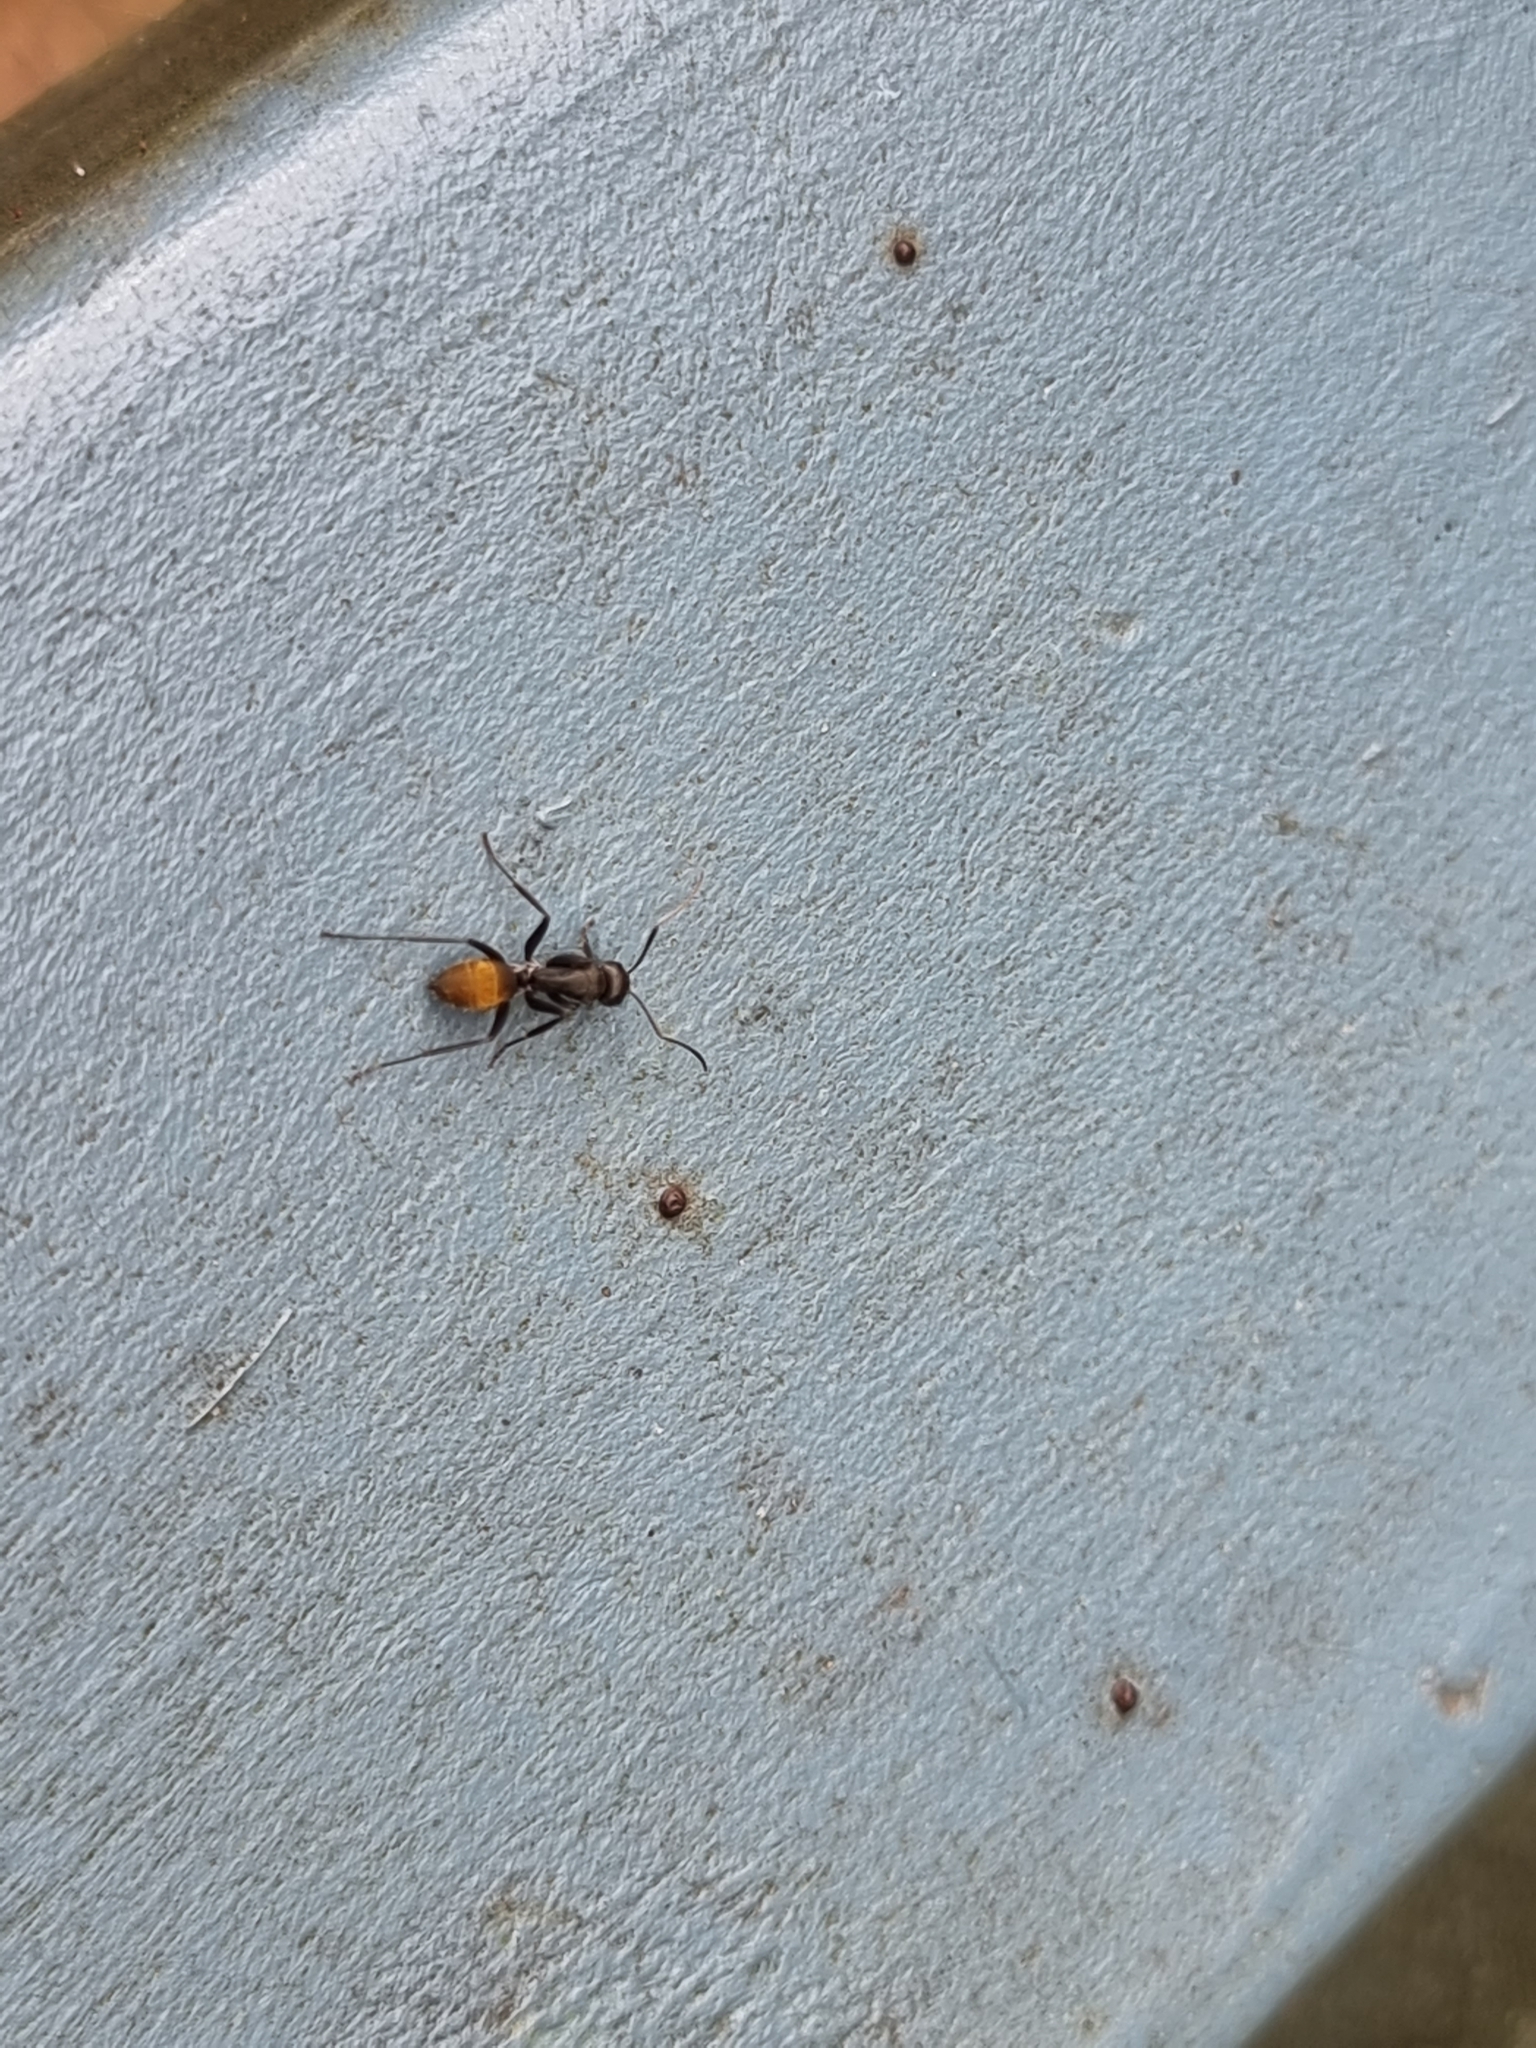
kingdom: Animalia
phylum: Arthropoda
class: Insecta
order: Hymenoptera
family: Formicidae
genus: Camponotus
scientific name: Camponotus aeneopilosus
